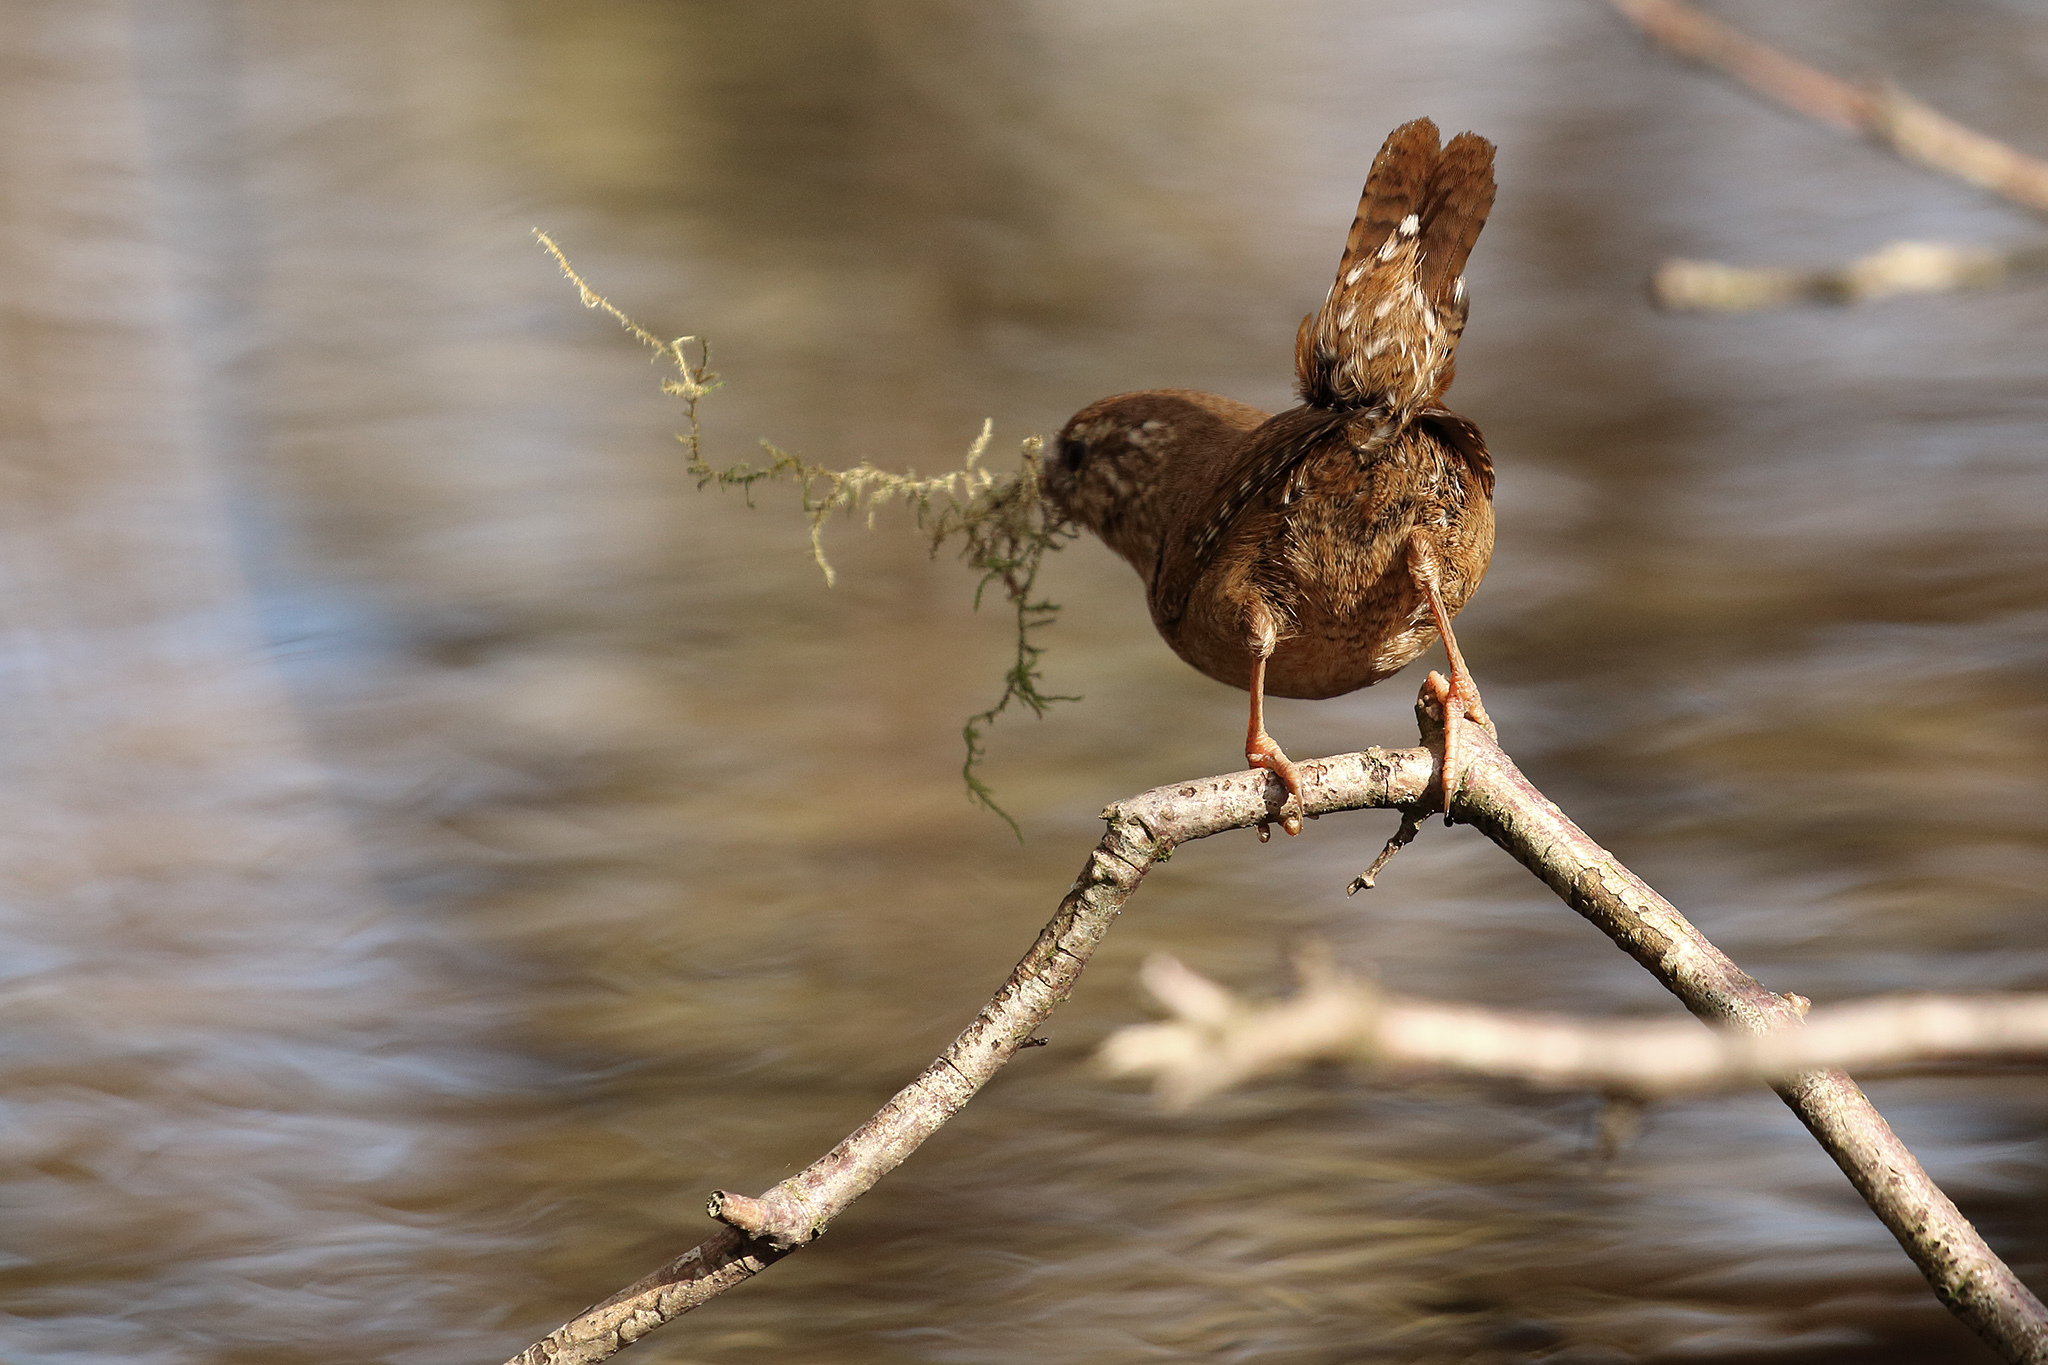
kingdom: Animalia
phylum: Chordata
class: Aves
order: Passeriformes
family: Troglodytidae
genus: Troglodytes
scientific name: Troglodytes troglodytes
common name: Eurasian wren
